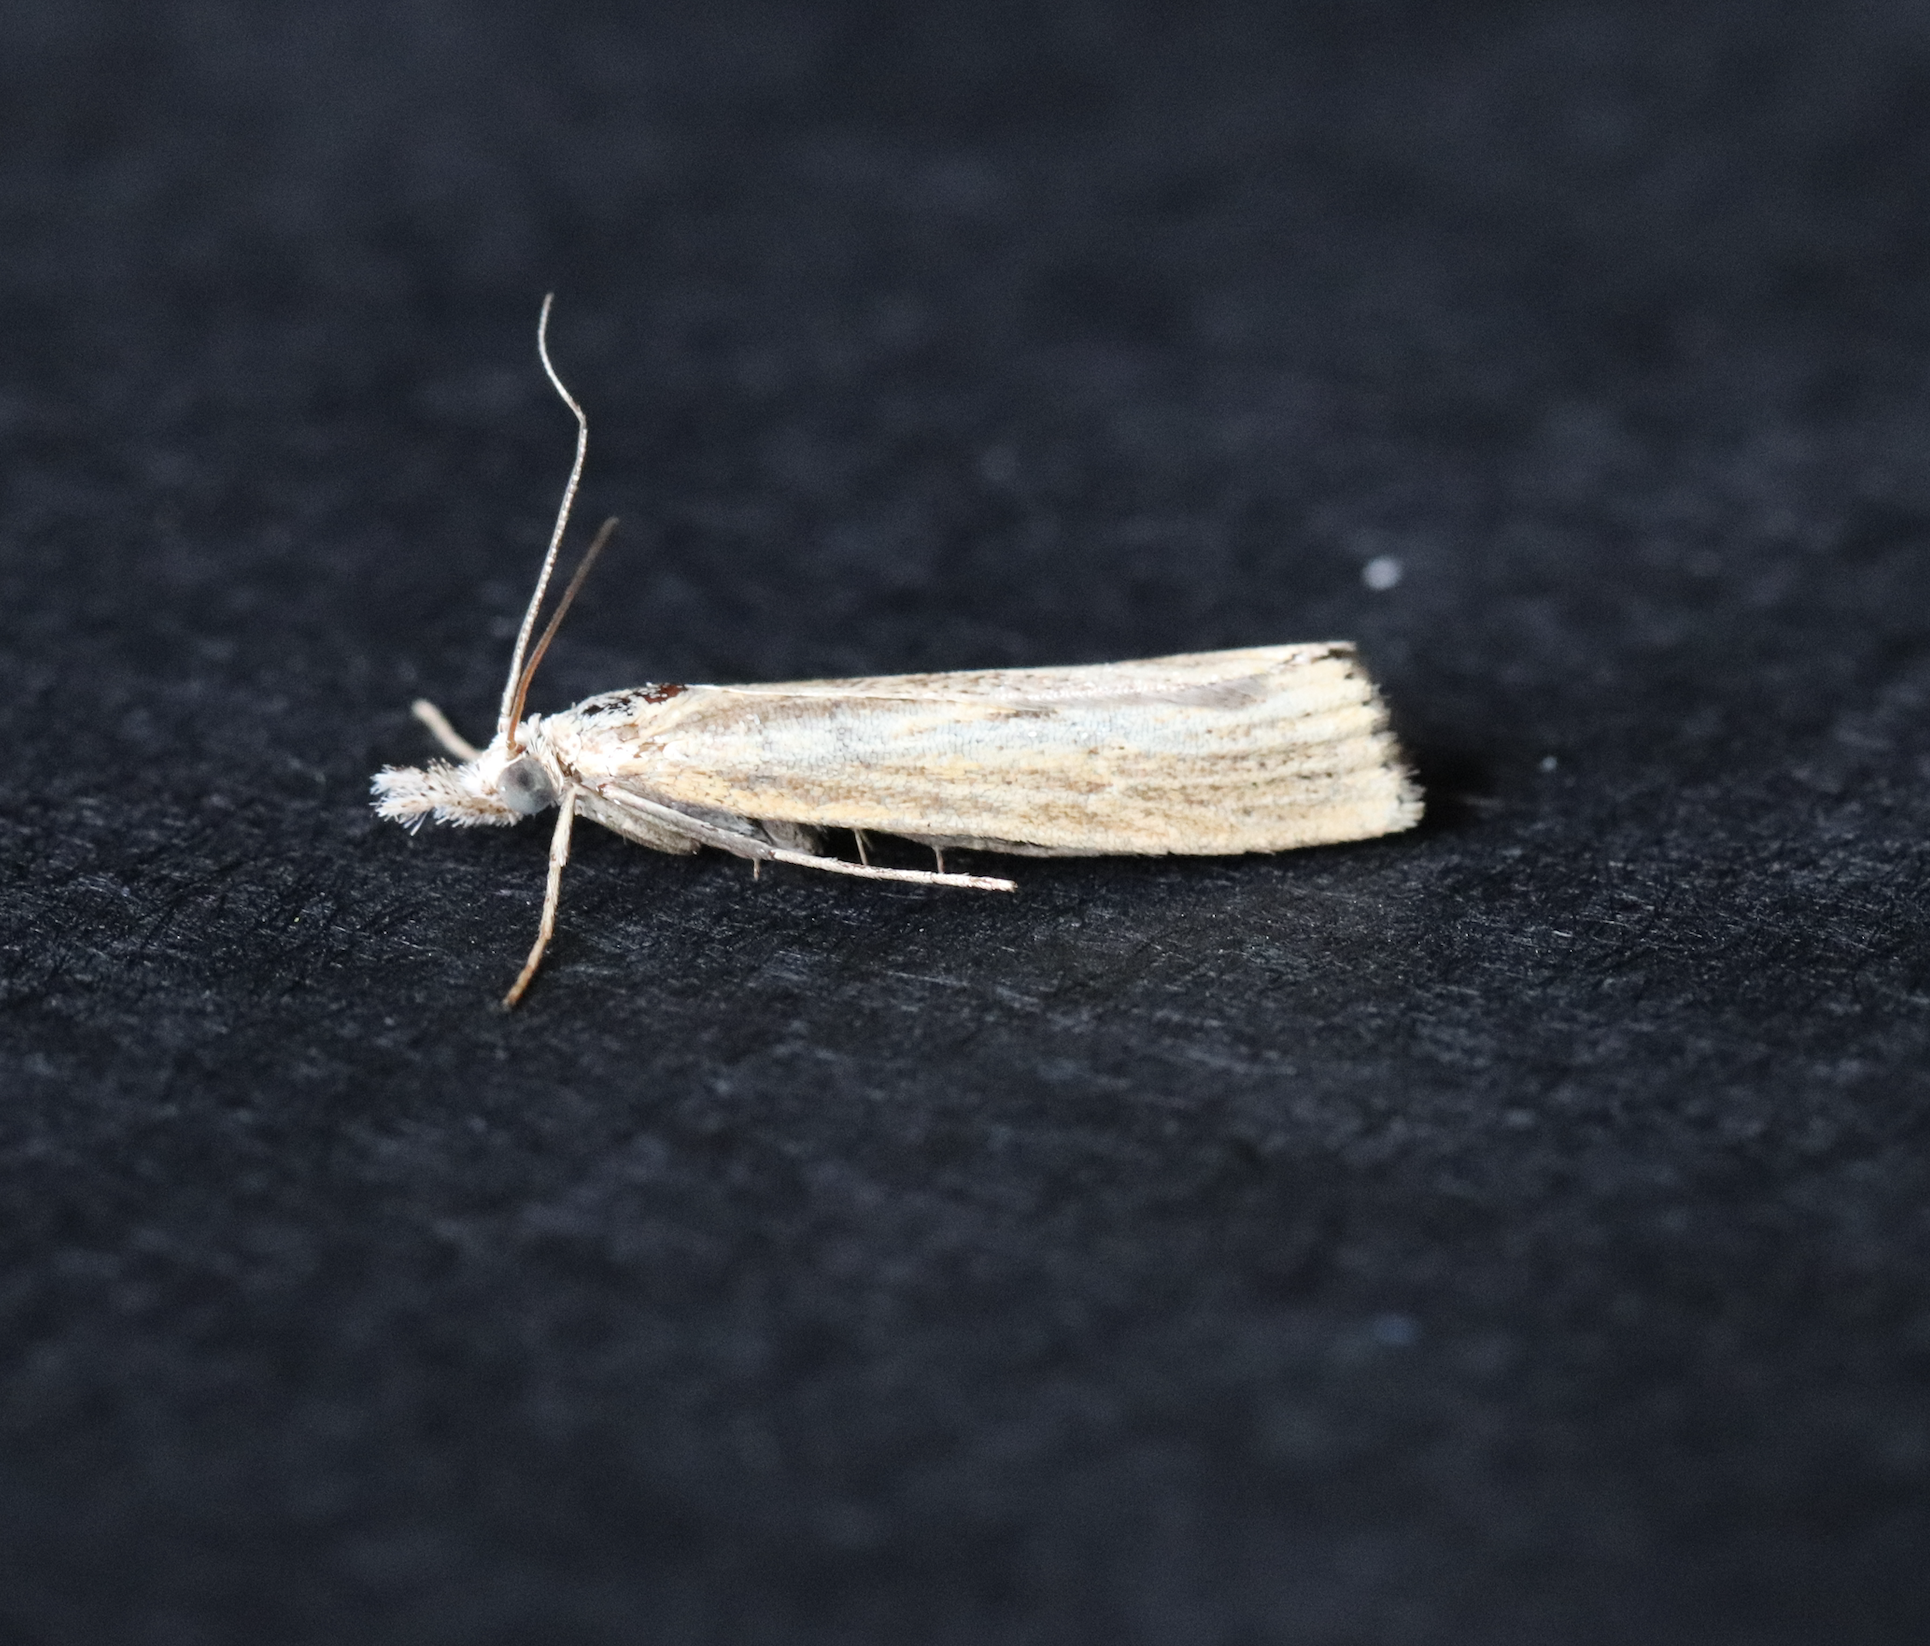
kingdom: Animalia
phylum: Arthropoda
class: Insecta
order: Lepidoptera
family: Crambidae
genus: Agriphila
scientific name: Agriphila inquinatella
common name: Barred grass-veneer
